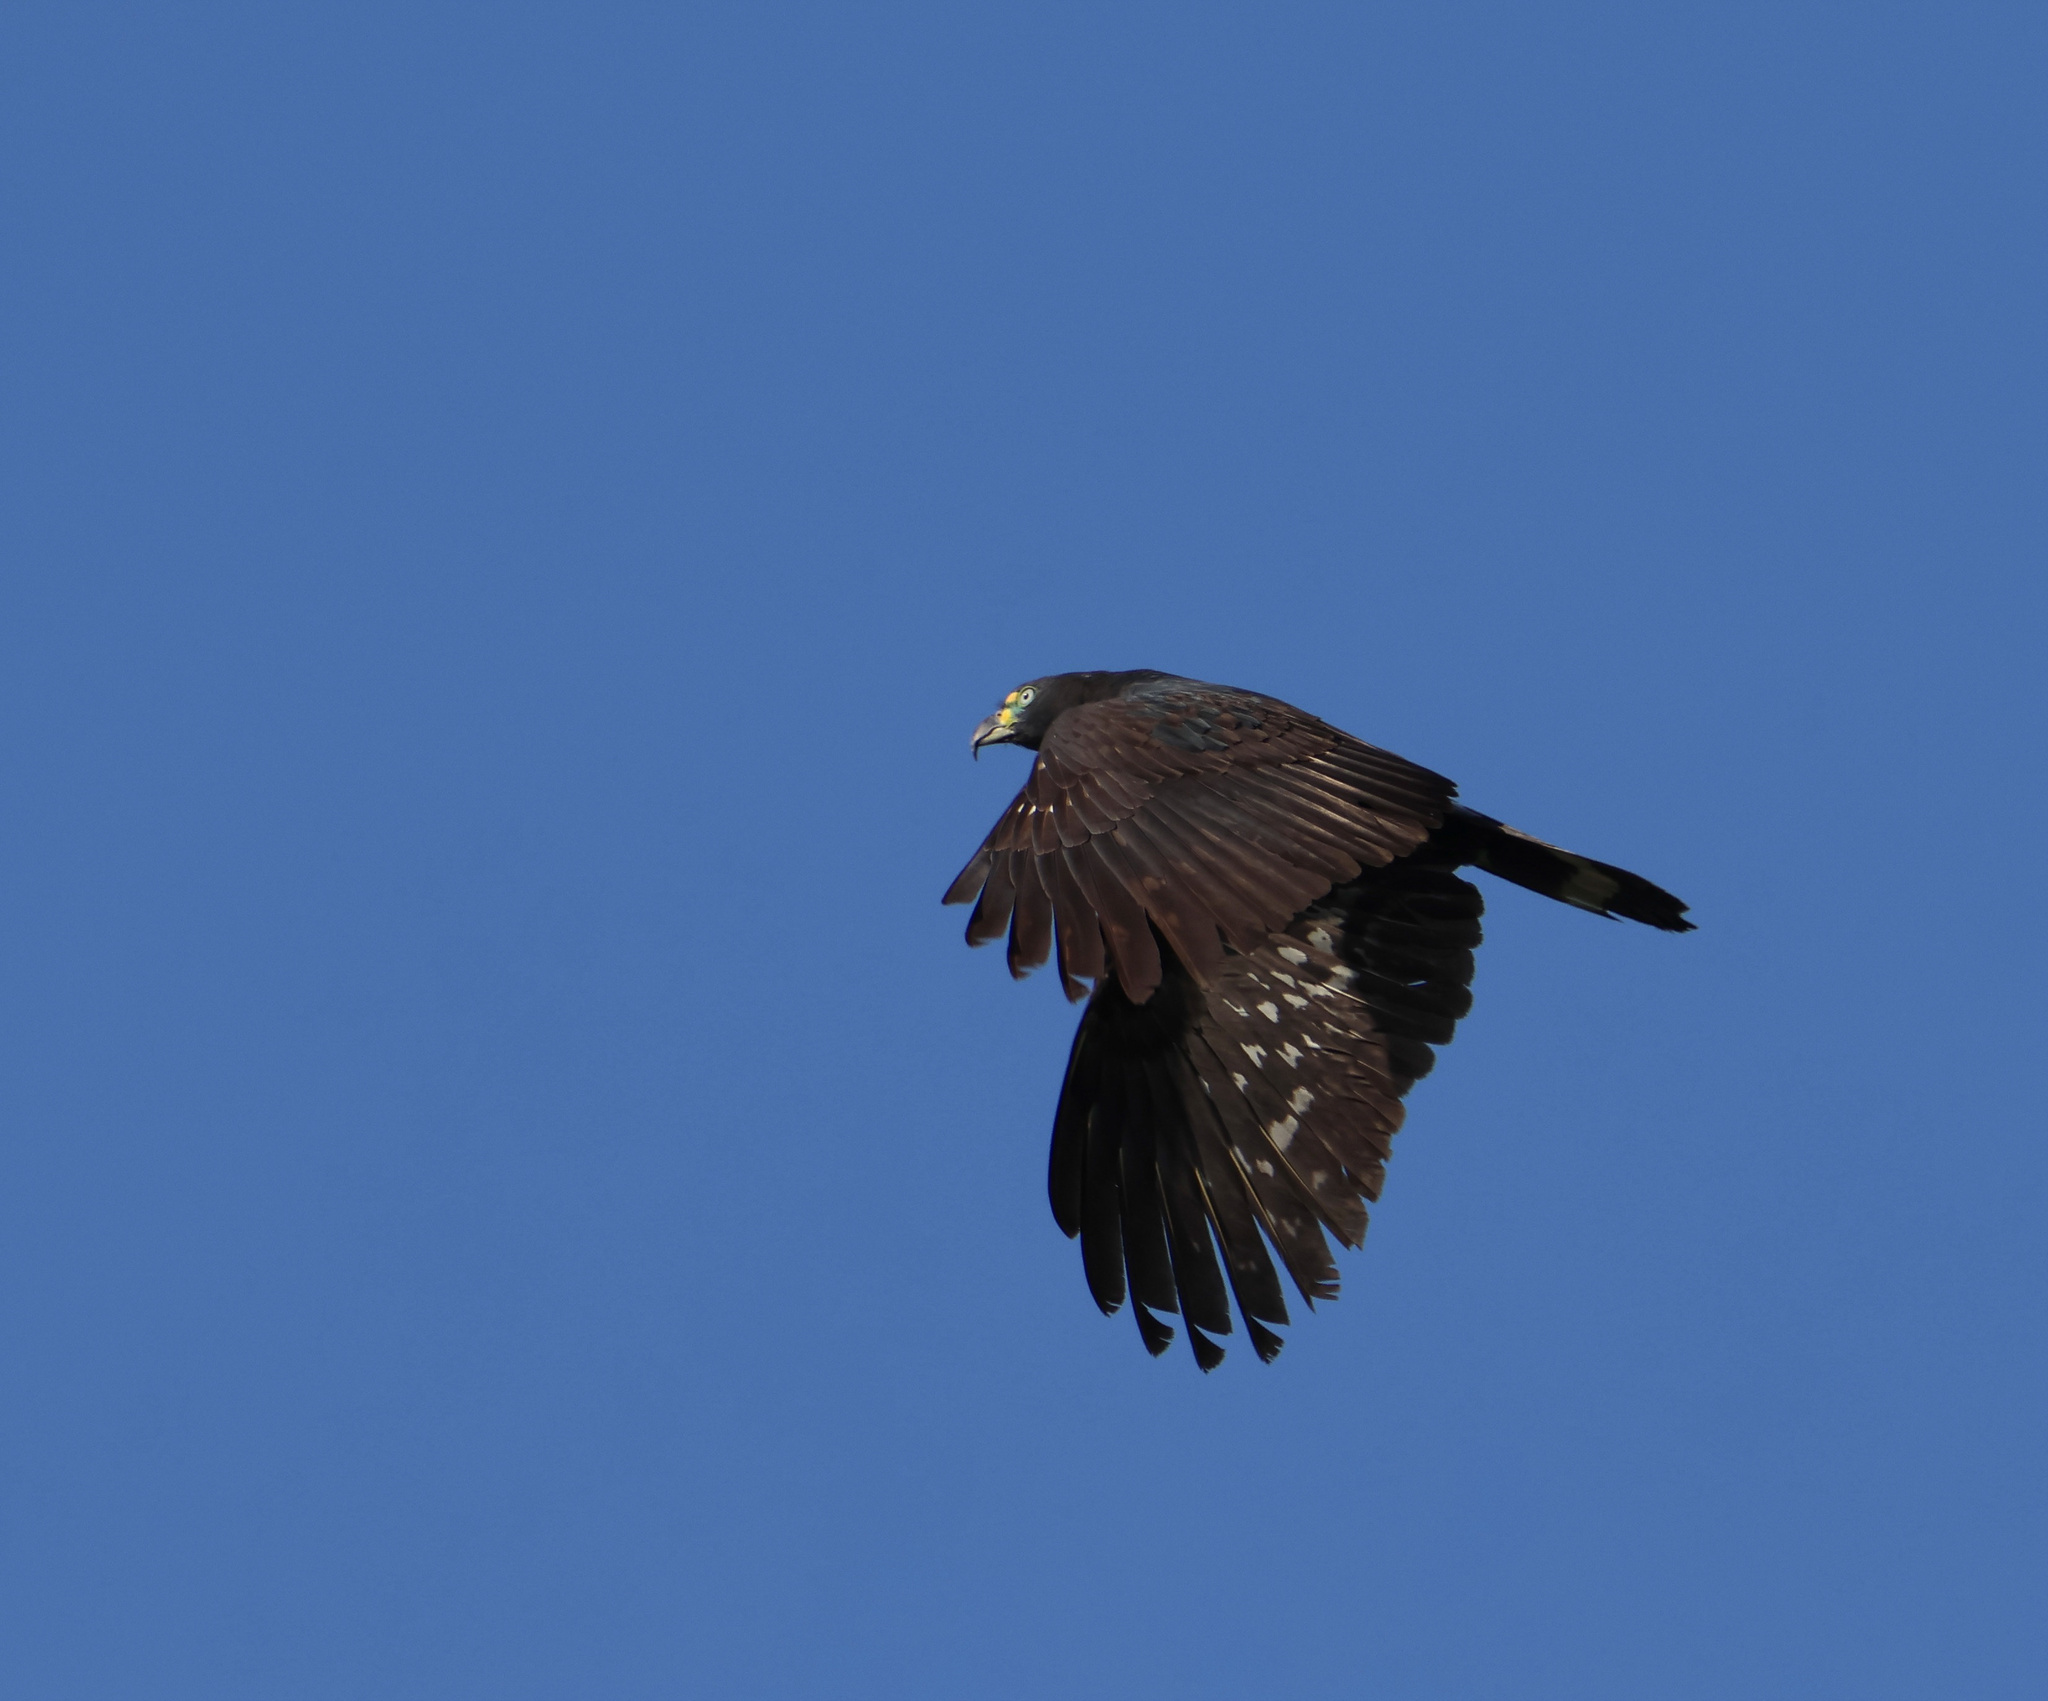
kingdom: Animalia
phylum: Chordata
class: Aves
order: Accipitriformes
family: Accipitridae
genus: Chondrohierax
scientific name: Chondrohierax uncinatus
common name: Hook-billed kite
